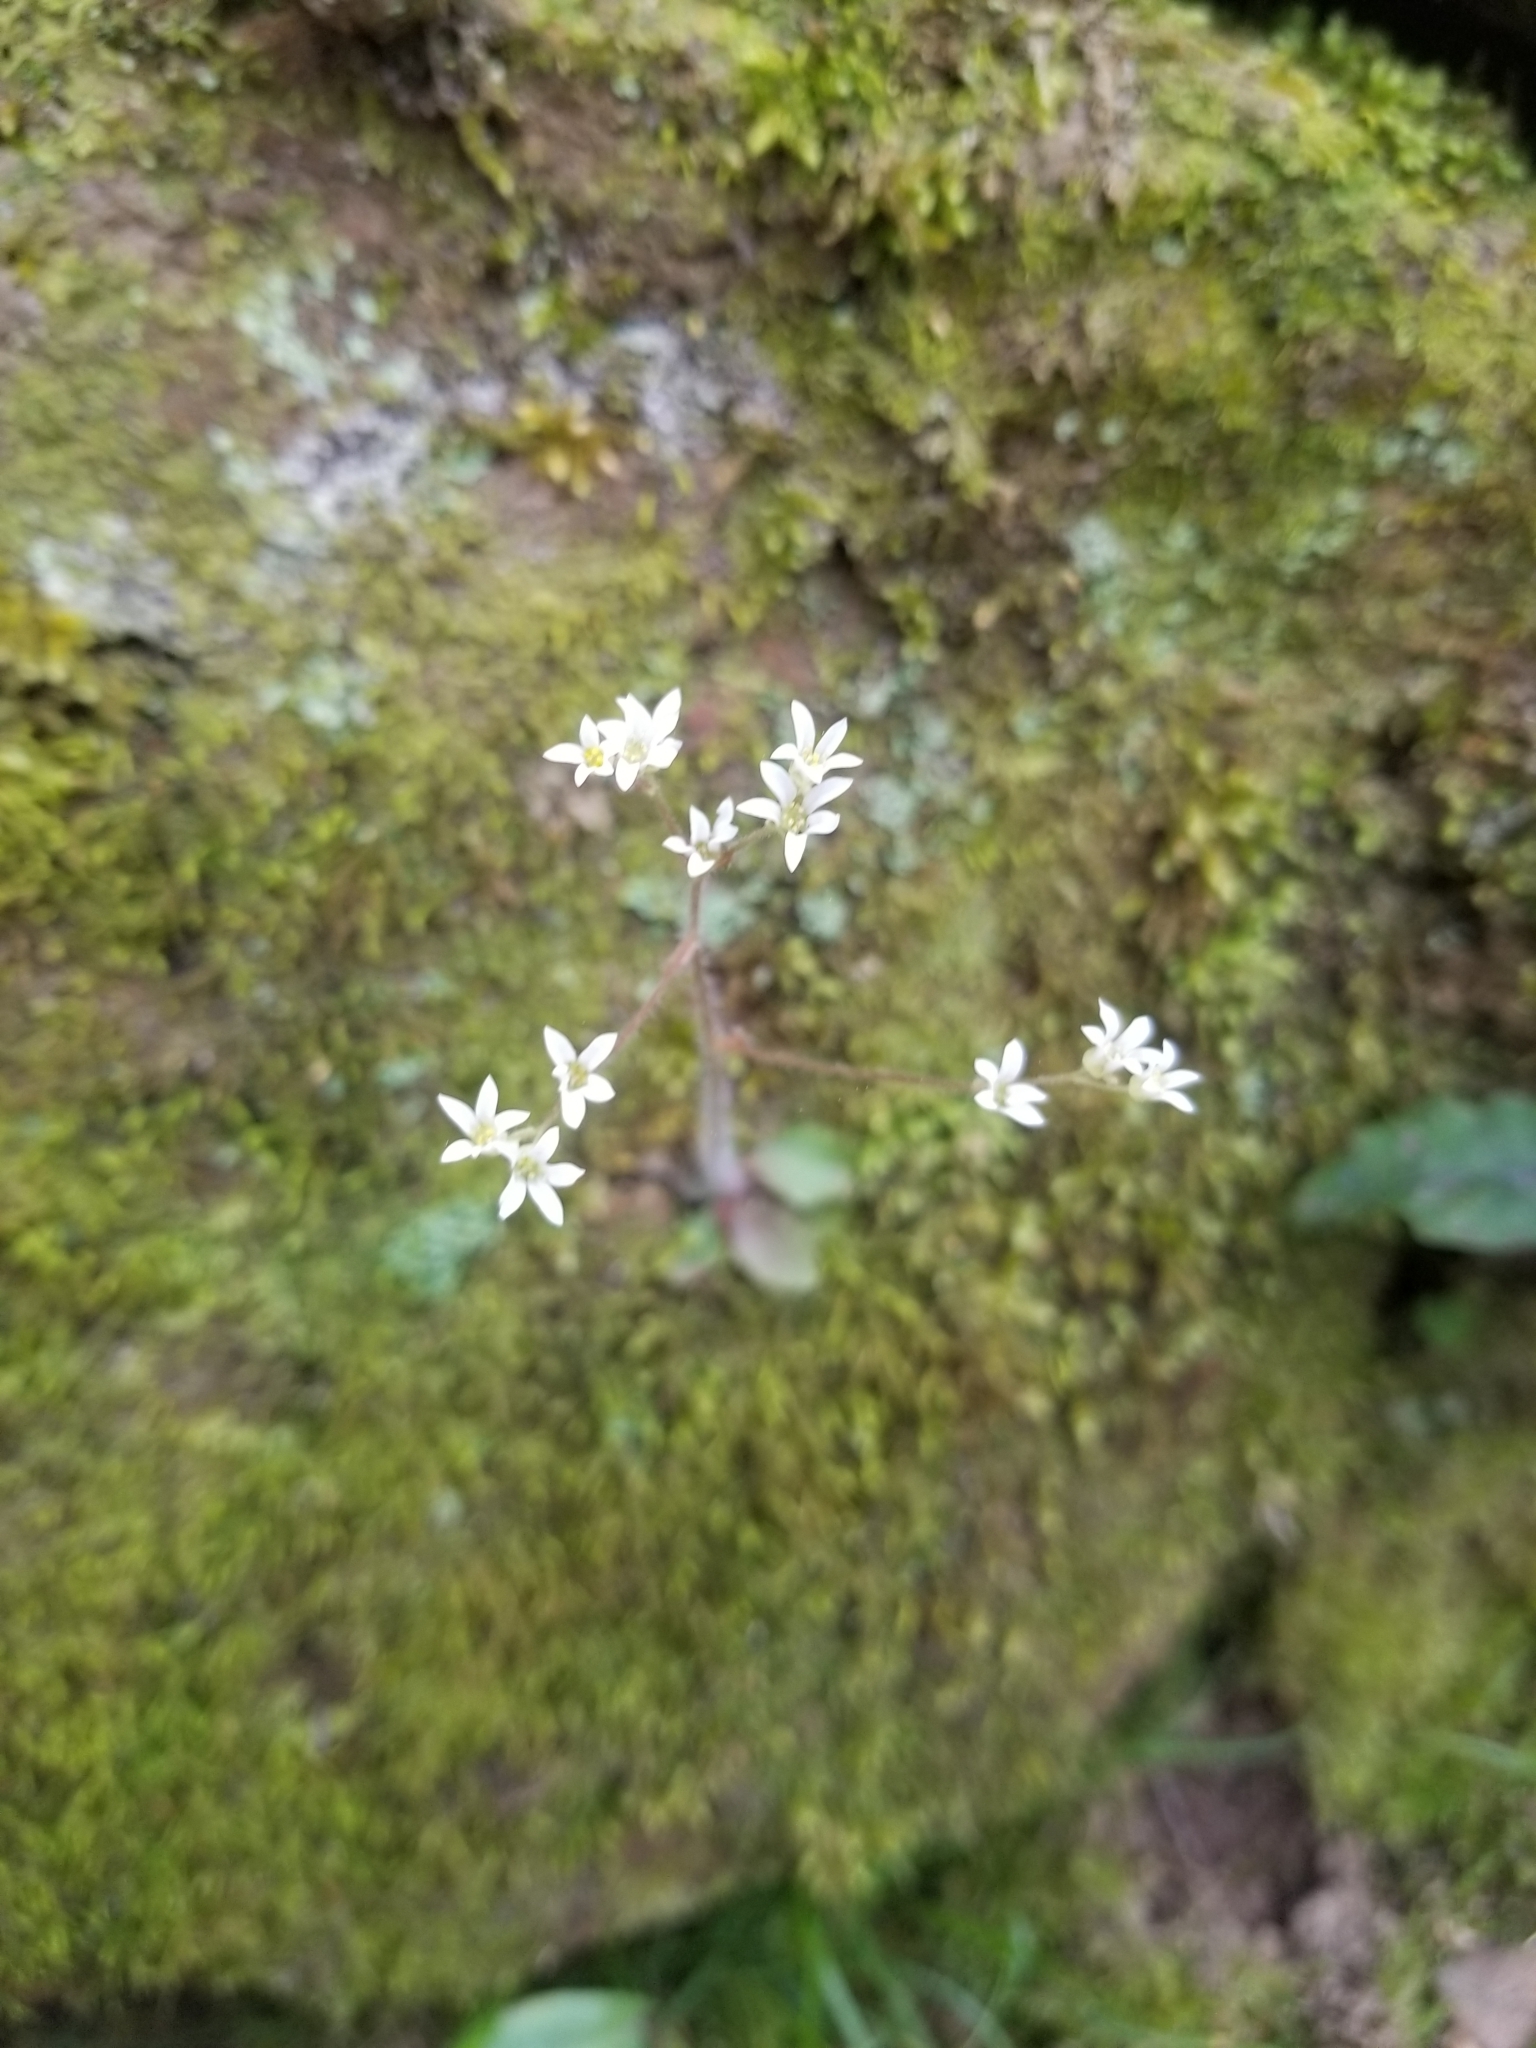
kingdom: Plantae
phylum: Tracheophyta
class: Magnoliopsida
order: Saxifragales
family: Saxifragaceae
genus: Micranthes
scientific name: Micranthes virginiensis
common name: Early saxifrage
